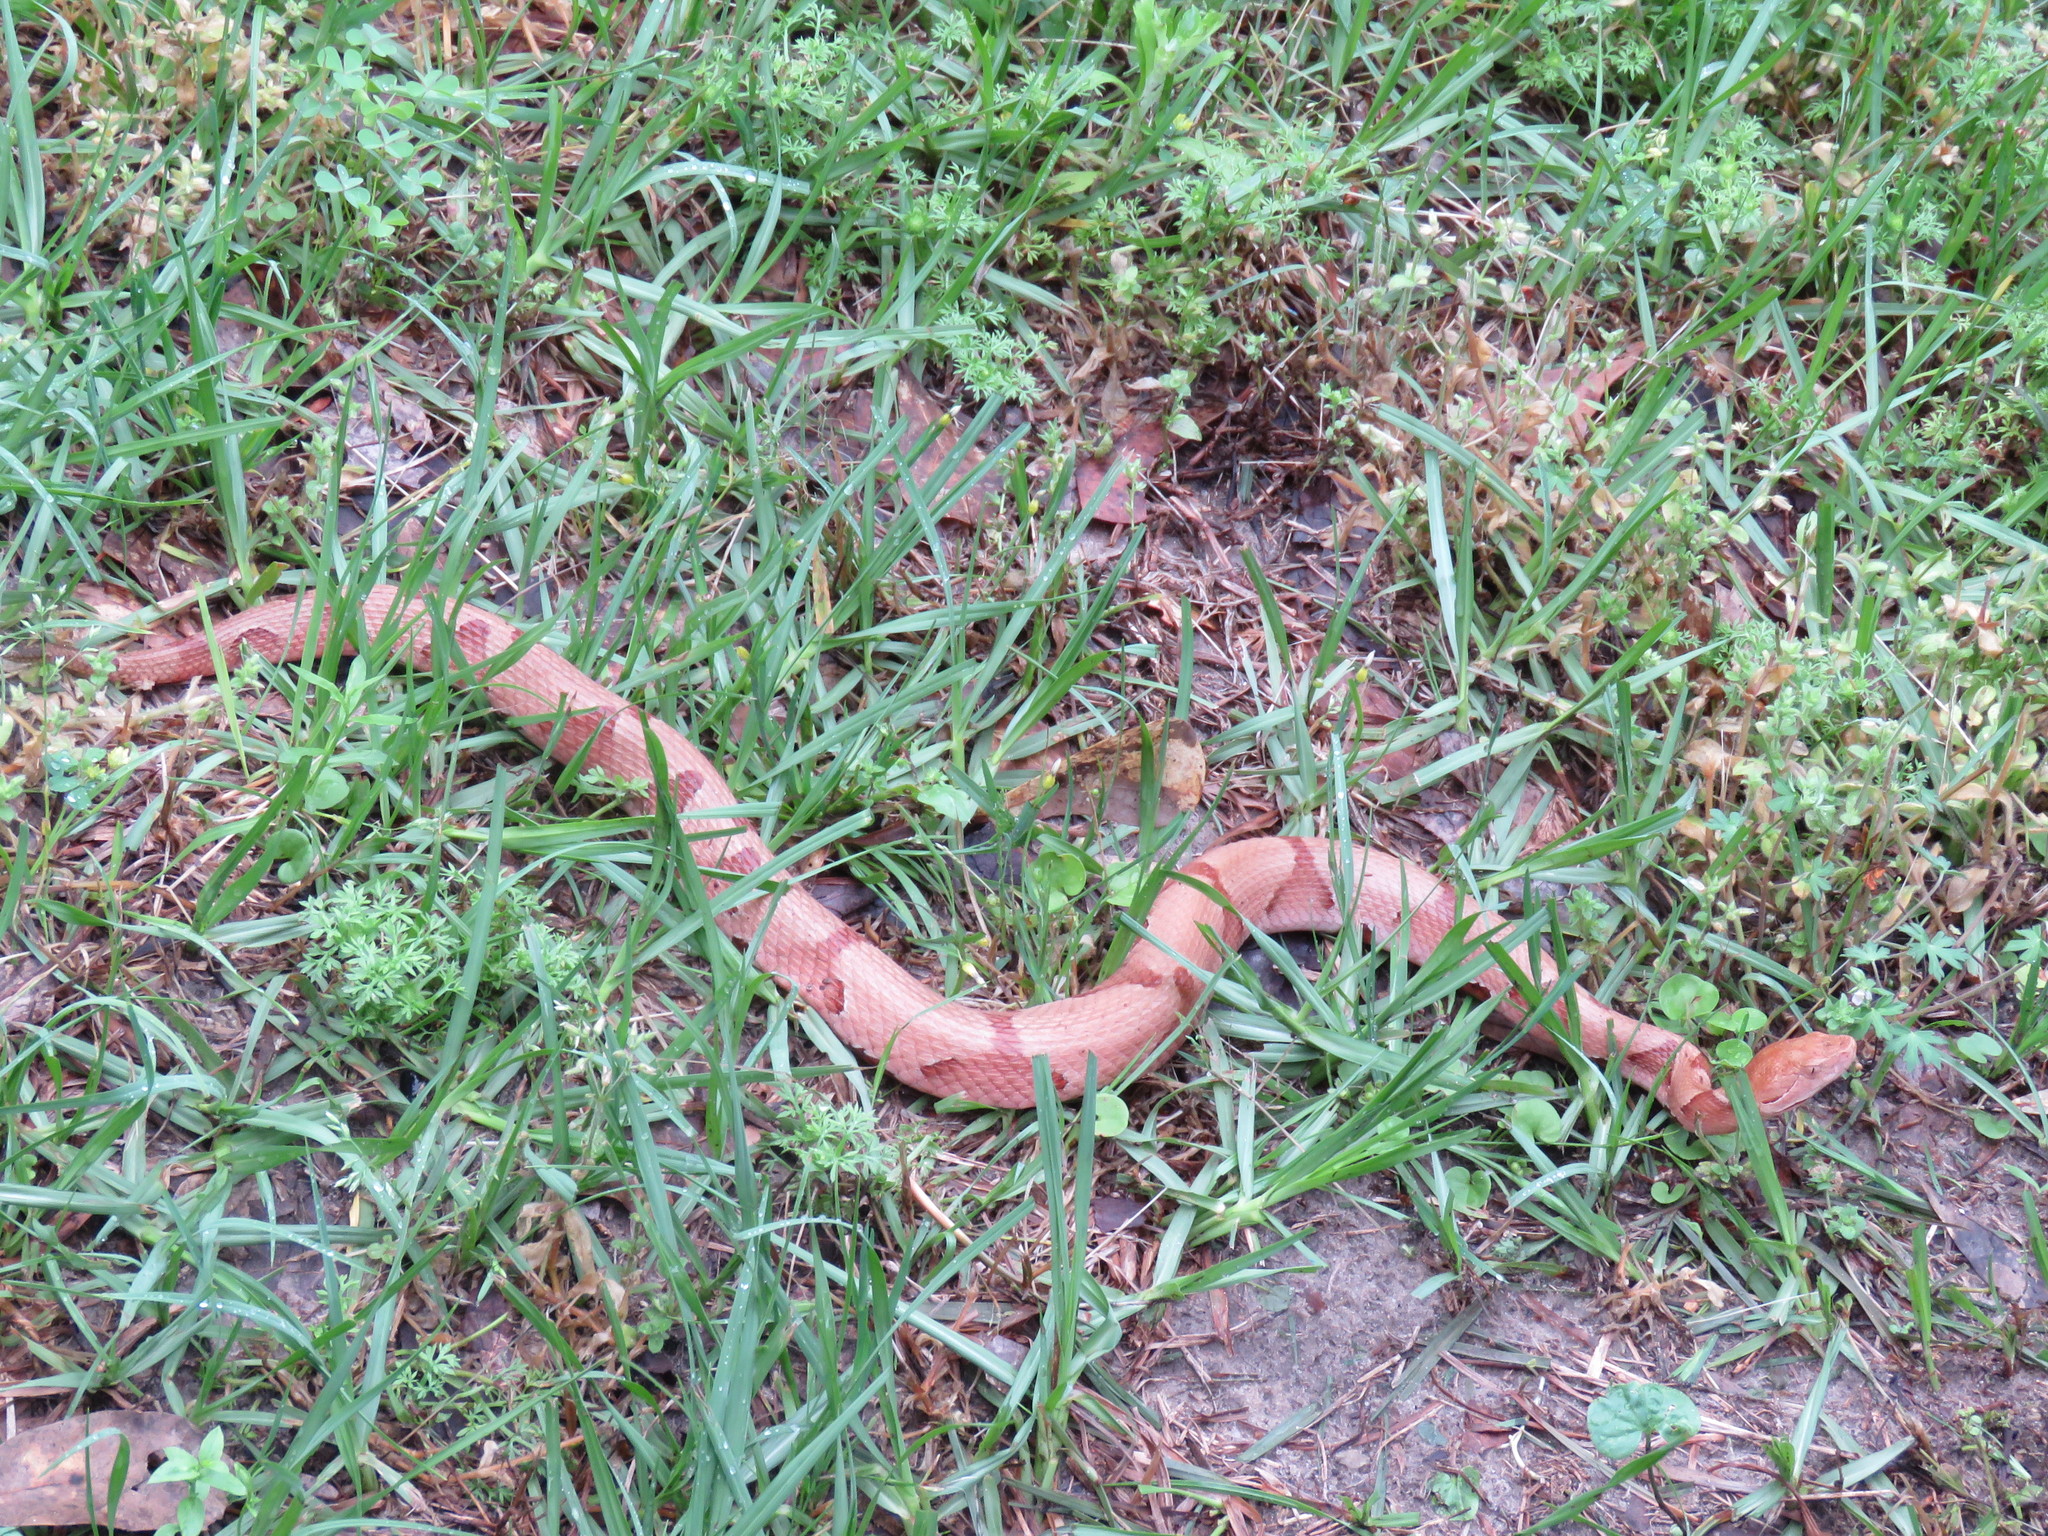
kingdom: Animalia
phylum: Chordata
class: Squamata
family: Viperidae
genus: Agkistrodon
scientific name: Agkistrodon contortrix
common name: Northern copperhead
